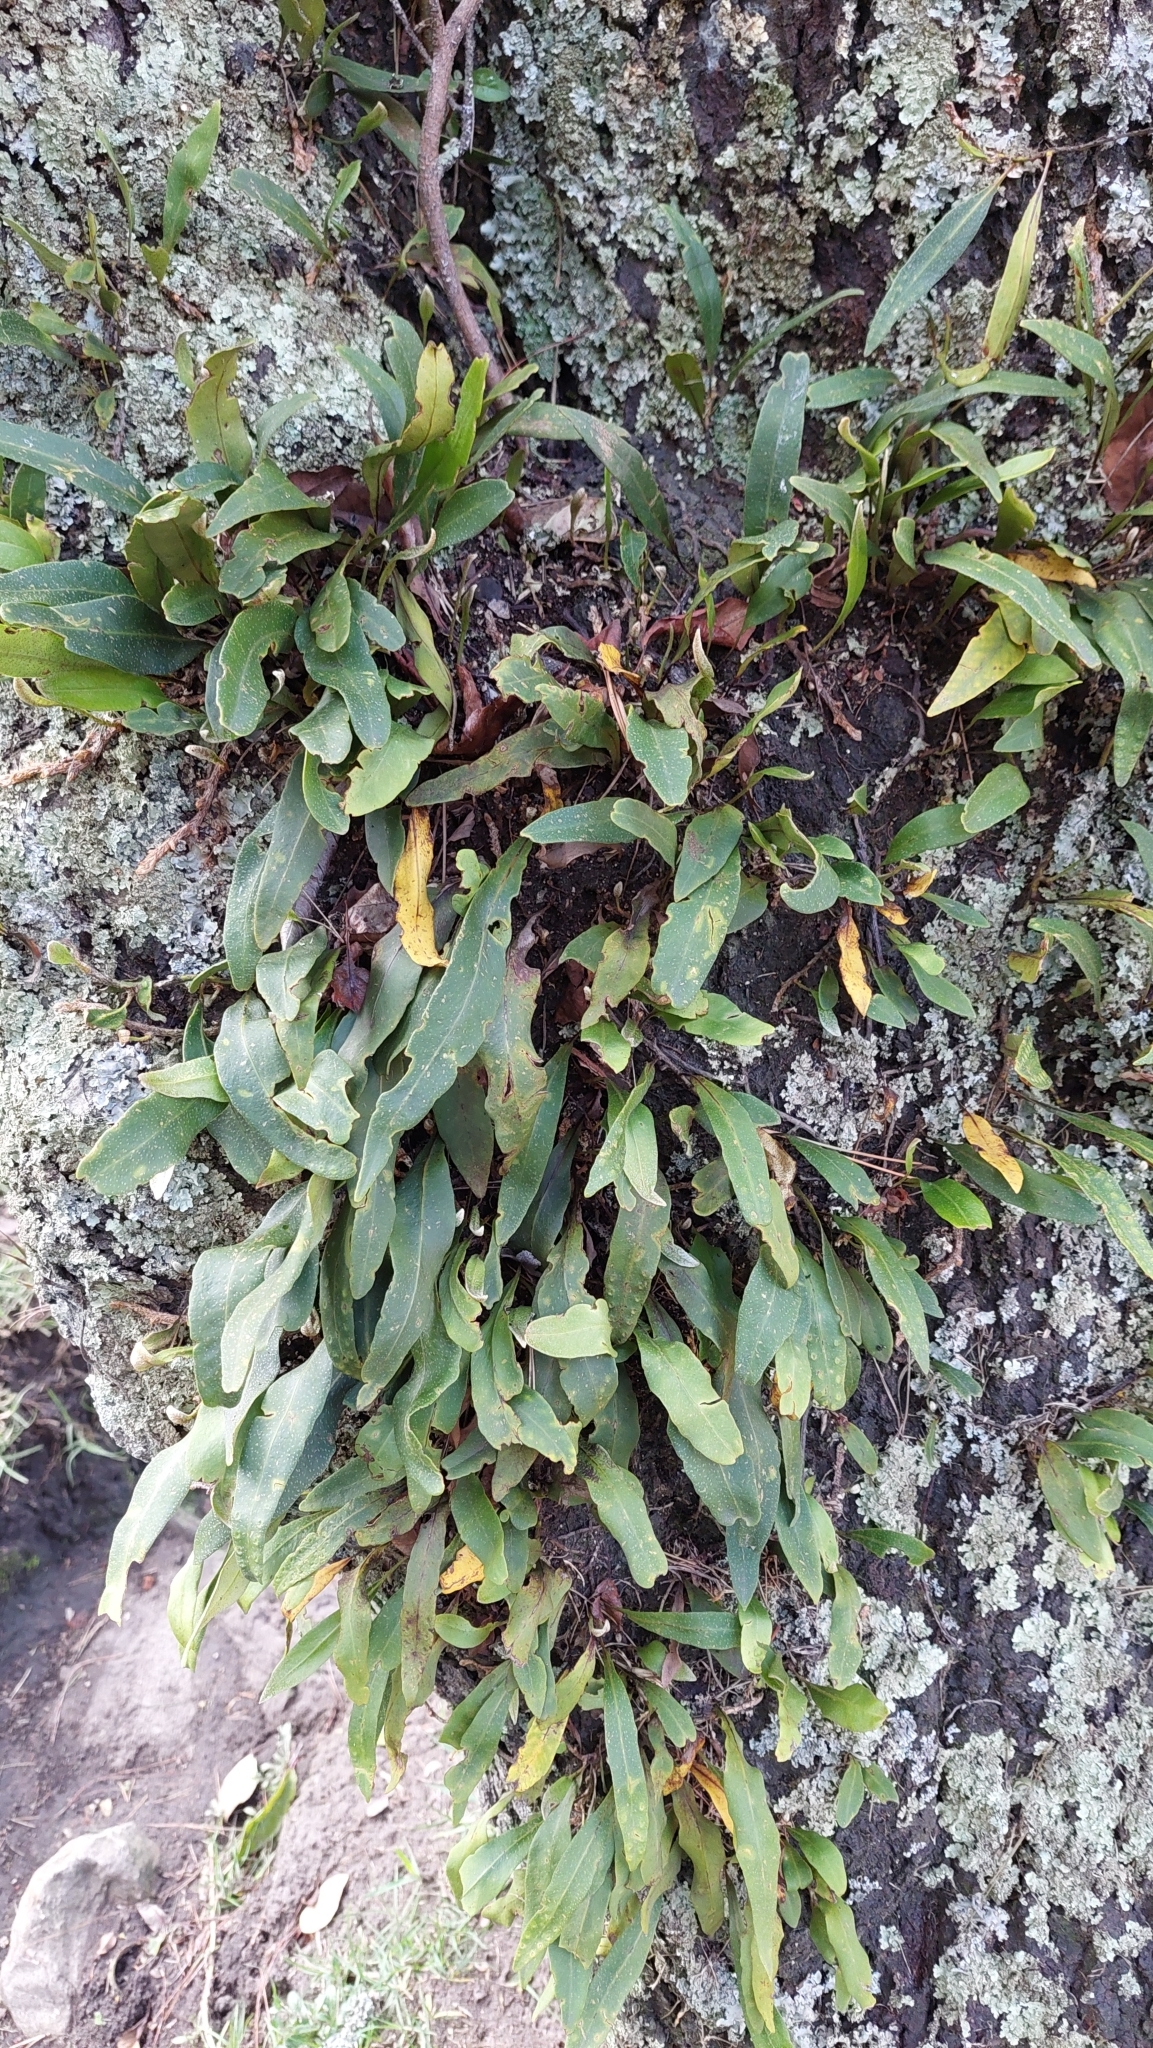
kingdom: Plantae
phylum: Tracheophyta
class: Polypodiopsida
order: Polypodiales
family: Polypodiaceae
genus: Pleopeltis
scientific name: Pleopeltis macrocarpa
